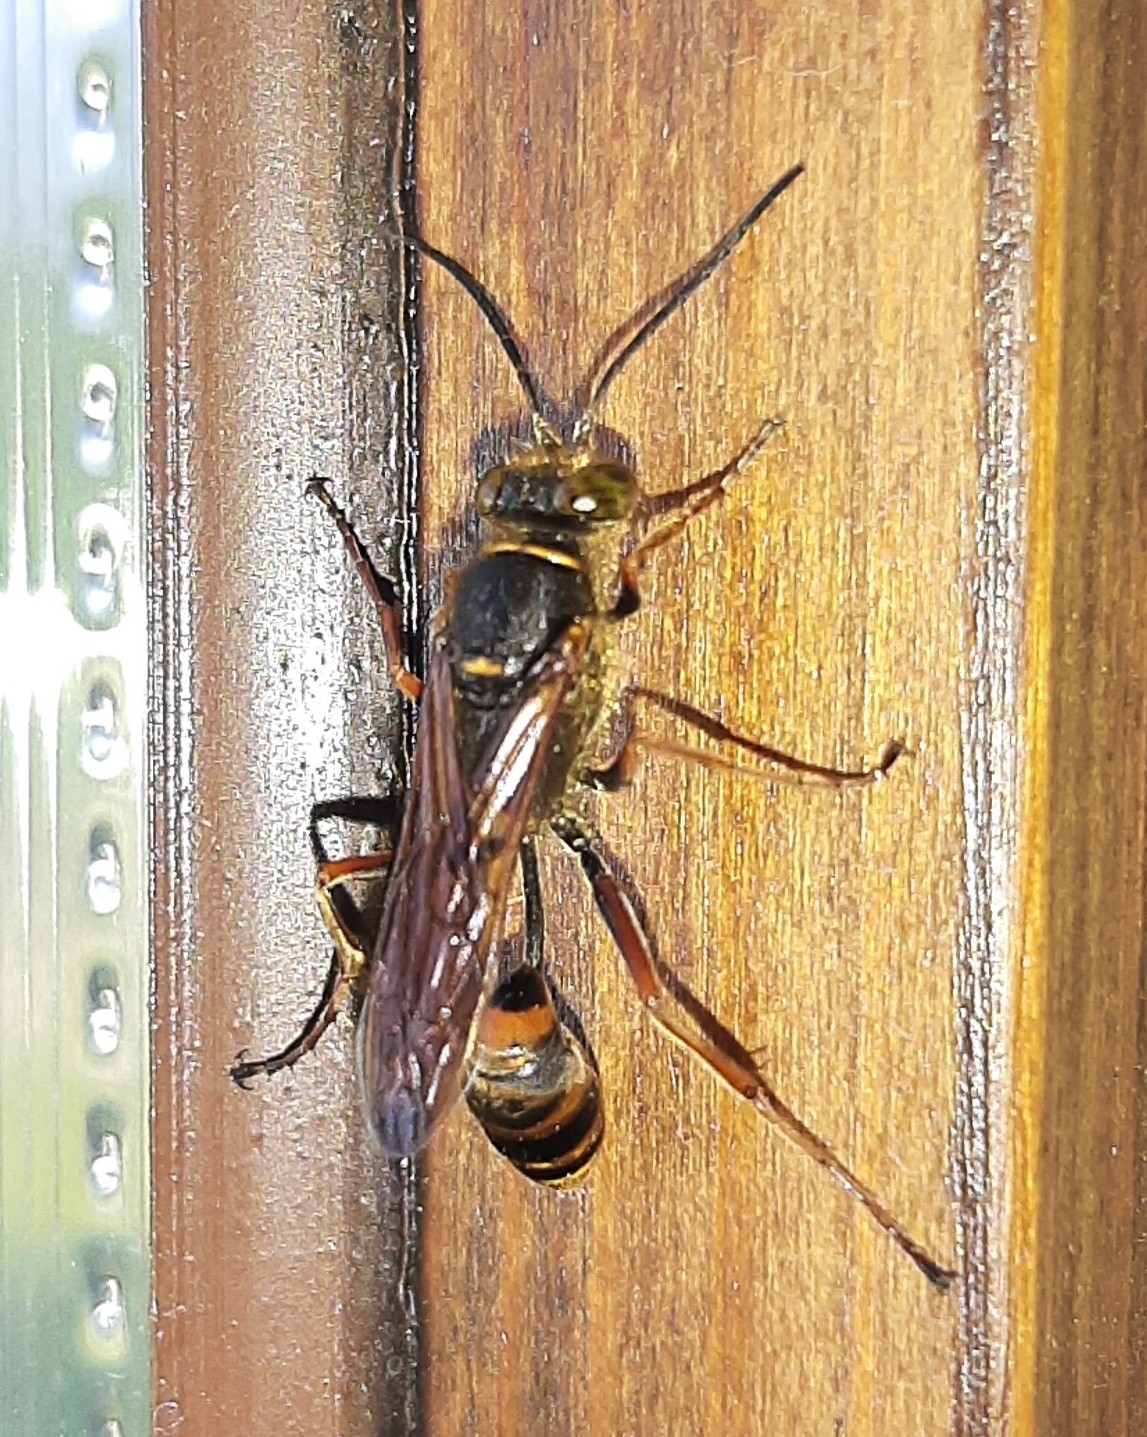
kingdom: Animalia
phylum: Arthropoda
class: Insecta
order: Hymenoptera
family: Sphecidae
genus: Sceliphron
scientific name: Sceliphron curvatum
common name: Pèlopèe
